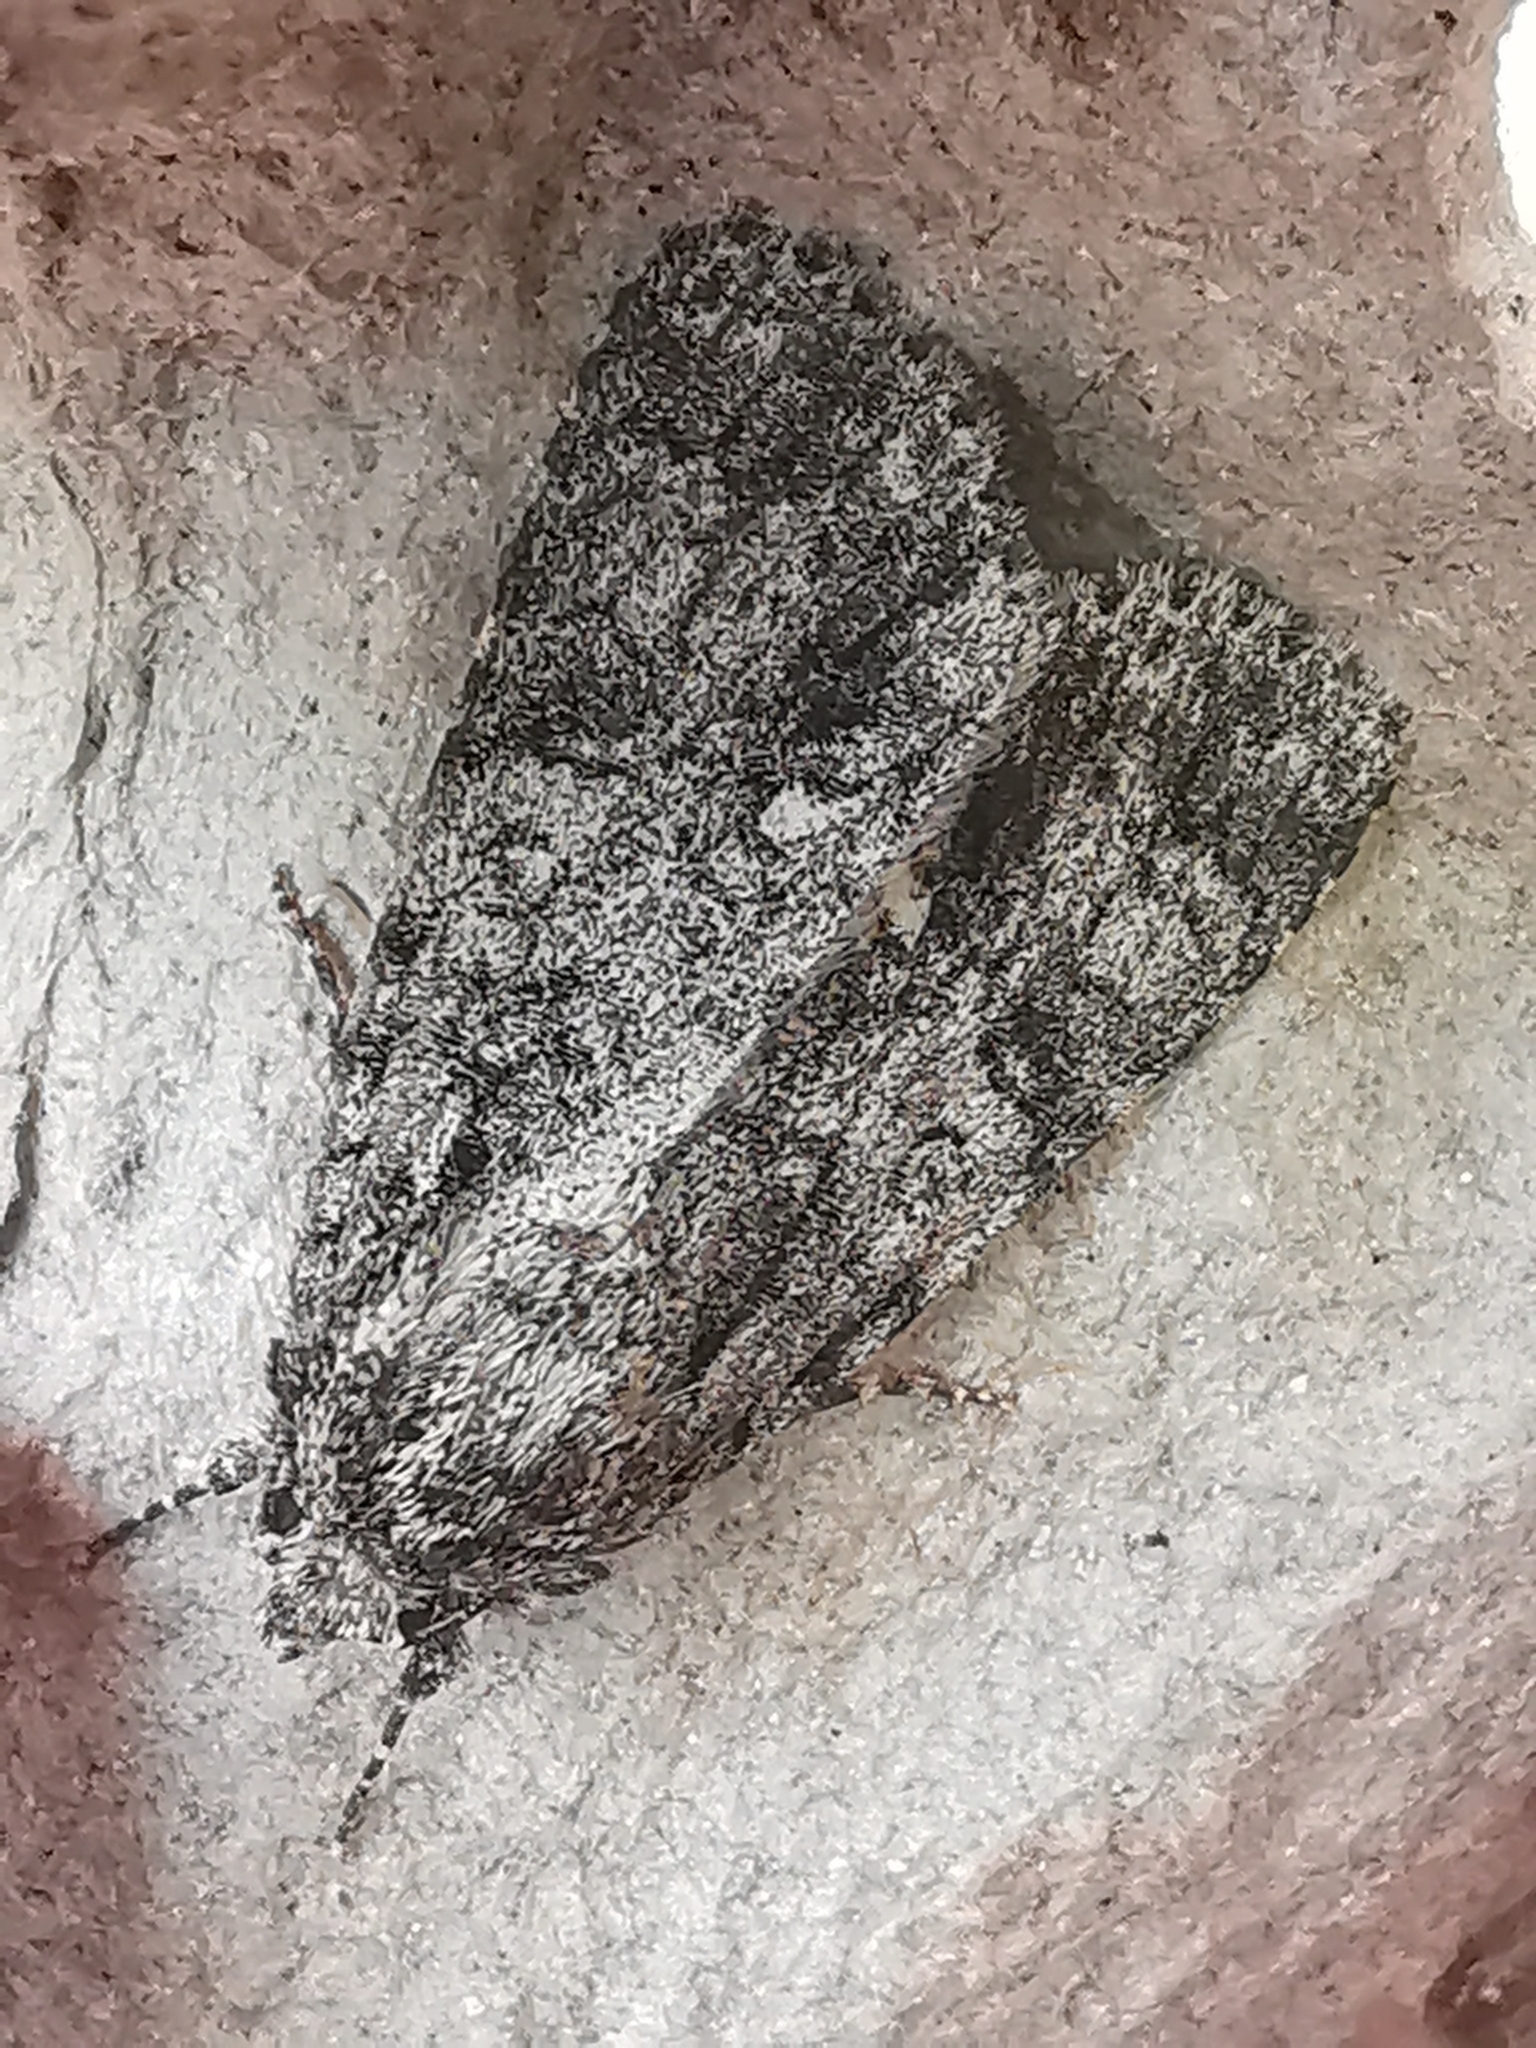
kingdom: Animalia
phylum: Arthropoda
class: Insecta
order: Lepidoptera
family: Noctuidae
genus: Acronicta
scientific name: Acronicta rumicis
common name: Knot grass
